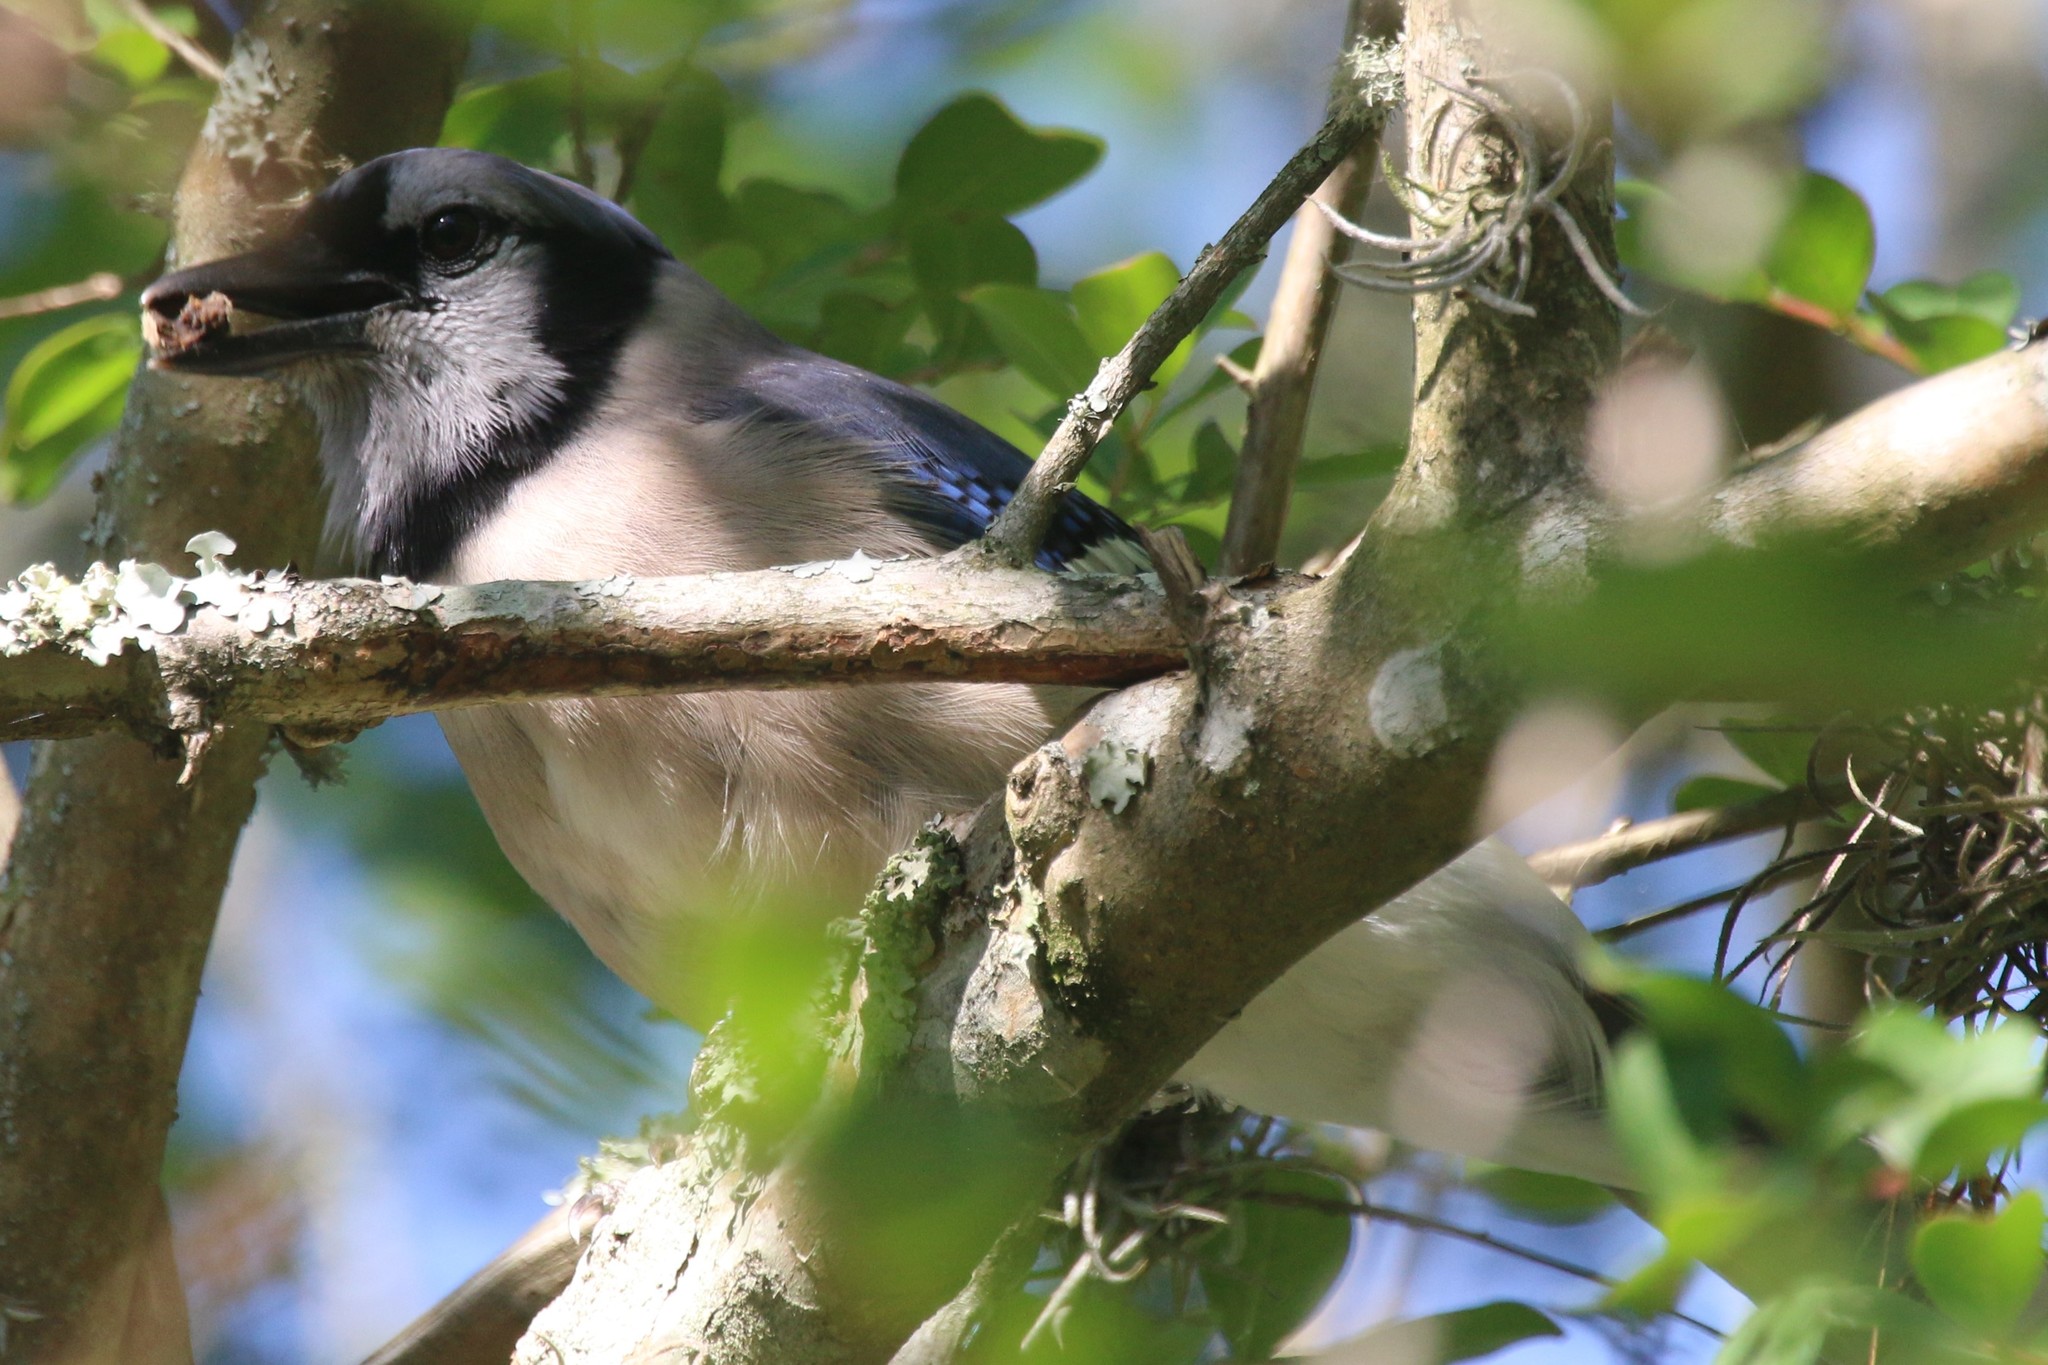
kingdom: Animalia
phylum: Chordata
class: Aves
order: Passeriformes
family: Corvidae
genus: Cyanocitta
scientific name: Cyanocitta cristata
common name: Blue jay
